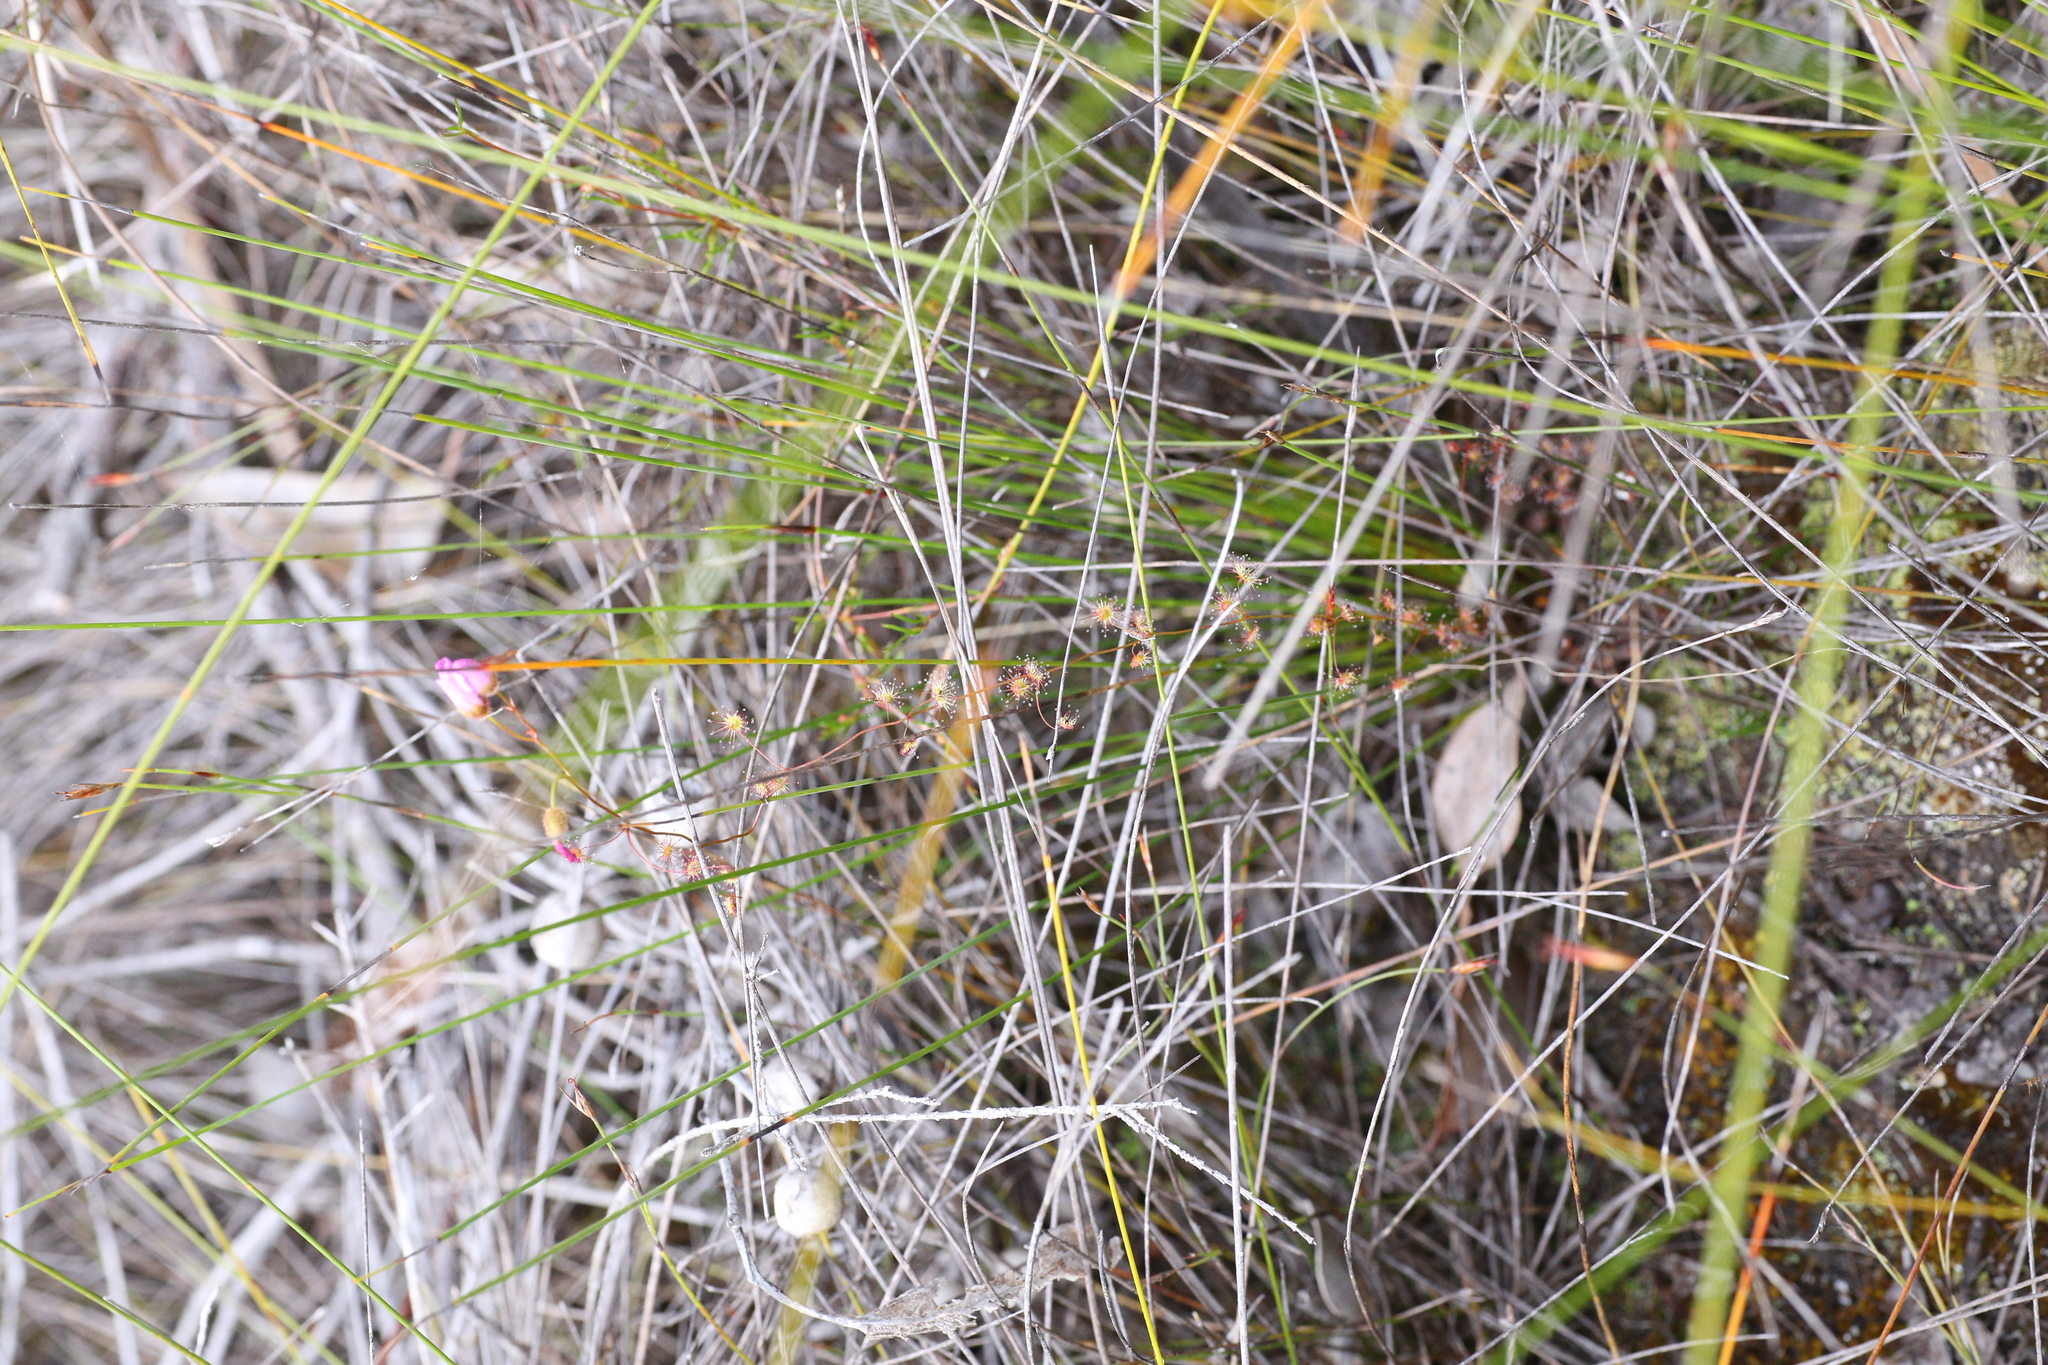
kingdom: Plantae
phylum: Tracheophyta
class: Magnoliopsida
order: Caryophyllales
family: Droseraceae
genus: Drosera
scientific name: Drosera
